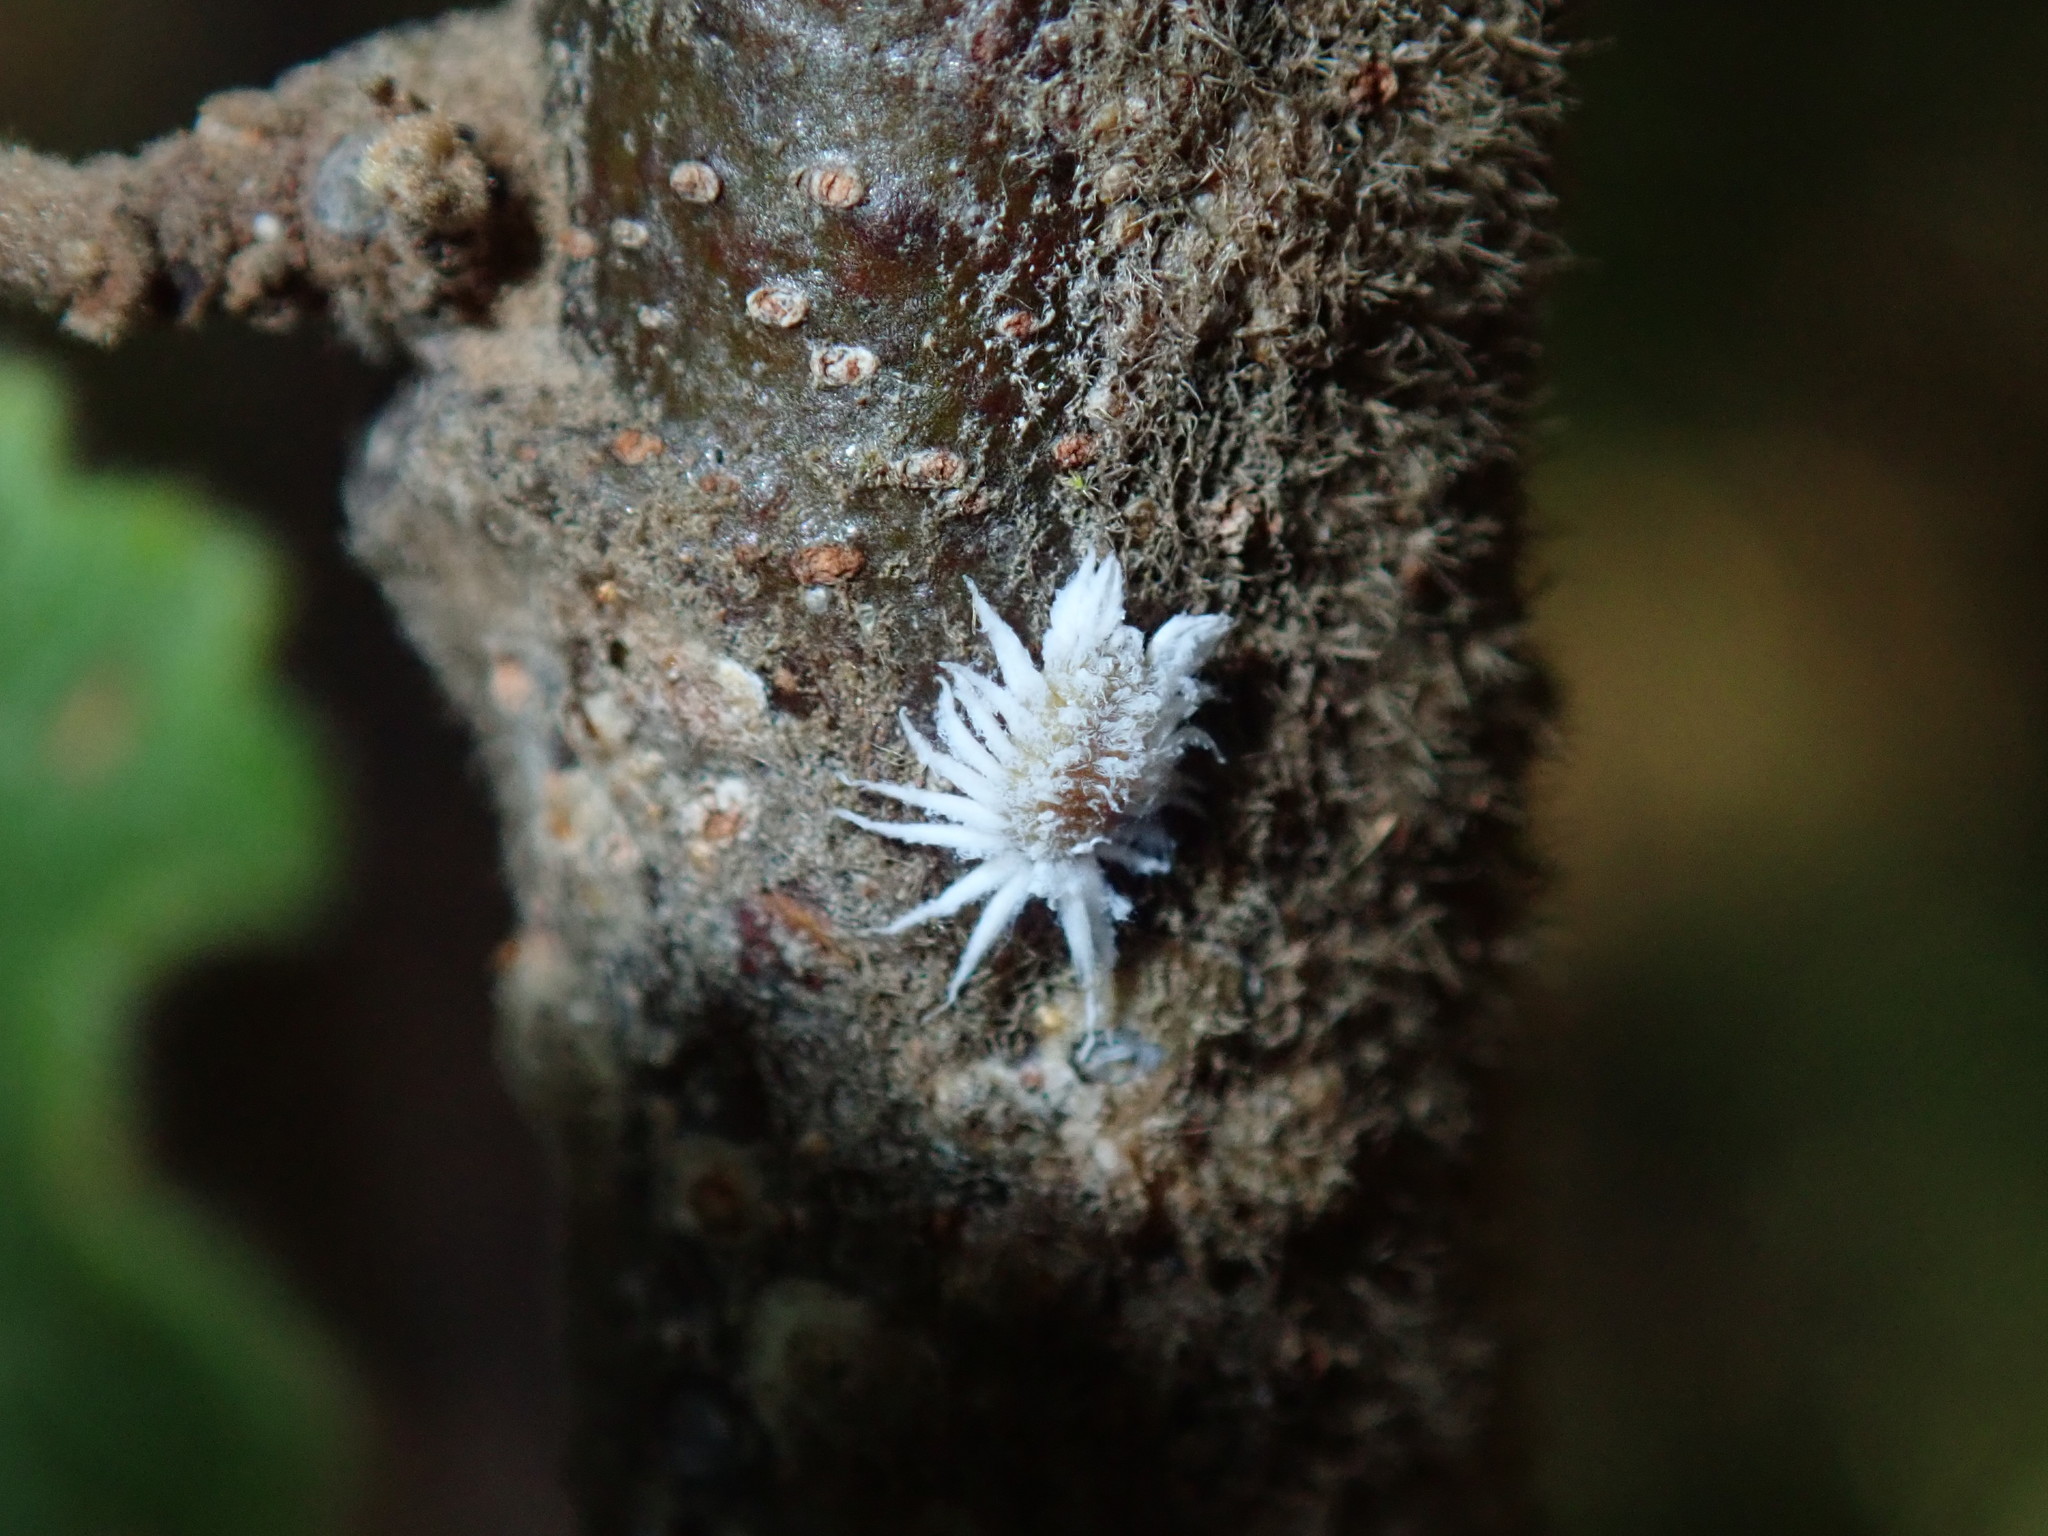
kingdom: Animalia
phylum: Arthropoda
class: Insecta
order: Coleoptera
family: Coccinellidae
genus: Cryptolaemus
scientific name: Cryptolaemus montrouzieri
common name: Mealybug destroyer
